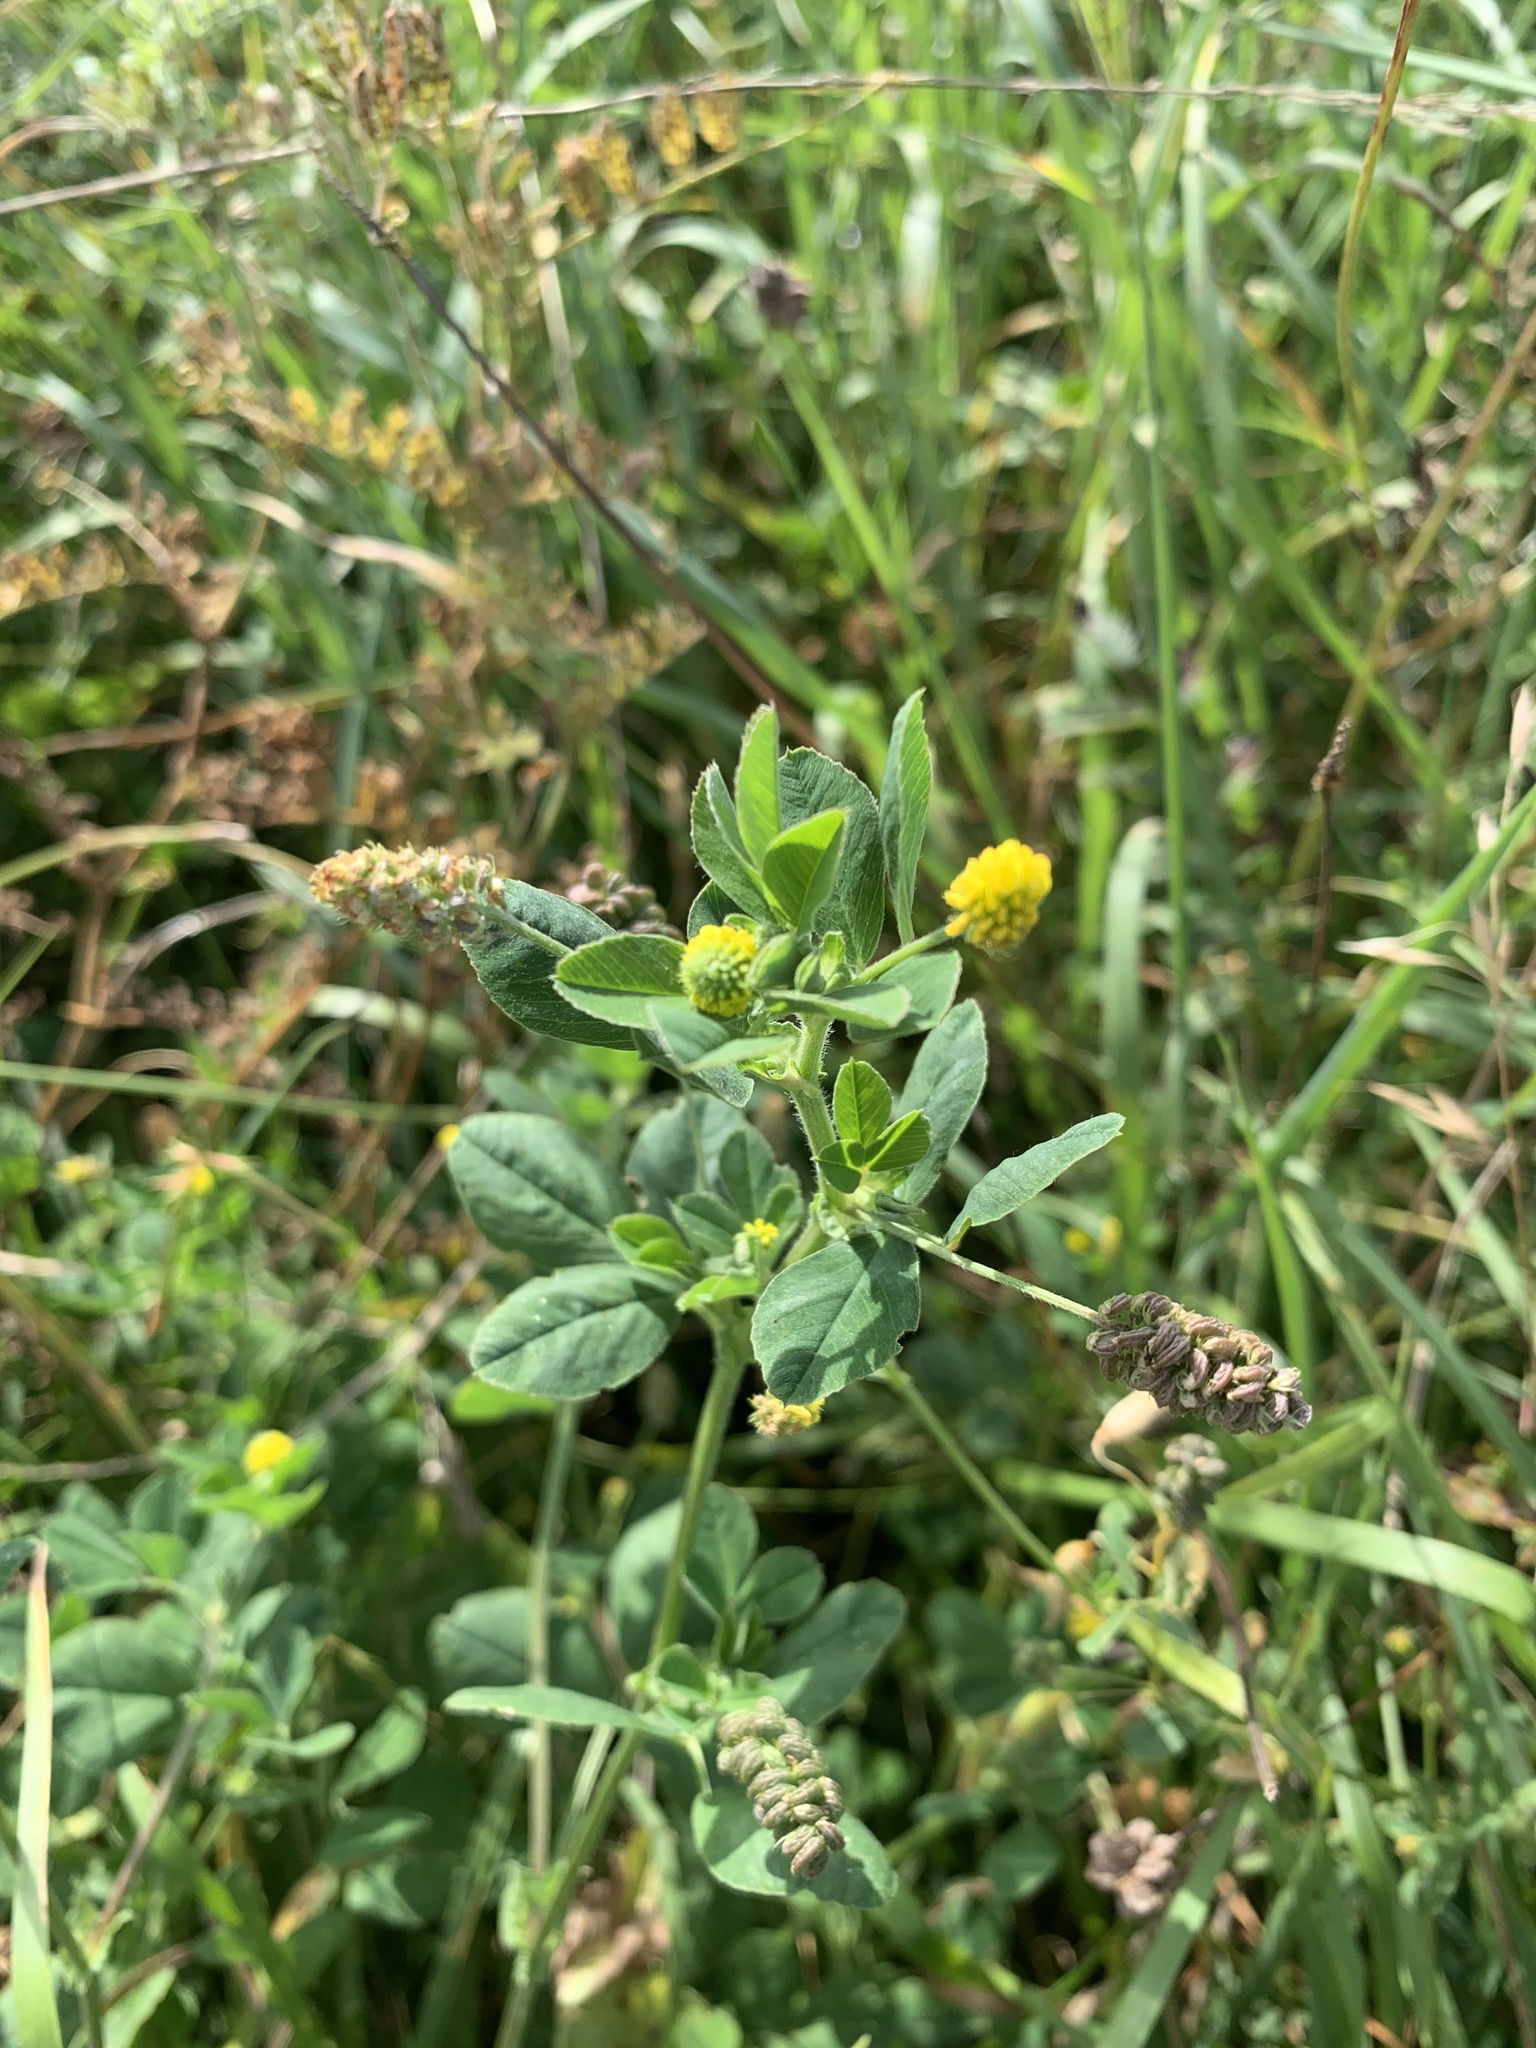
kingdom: Plantae
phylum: Tracheophyta
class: Magnoliopsida
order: Fabales
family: Fabaceae
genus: Medicago
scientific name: Medicago lupulina
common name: Black medick
